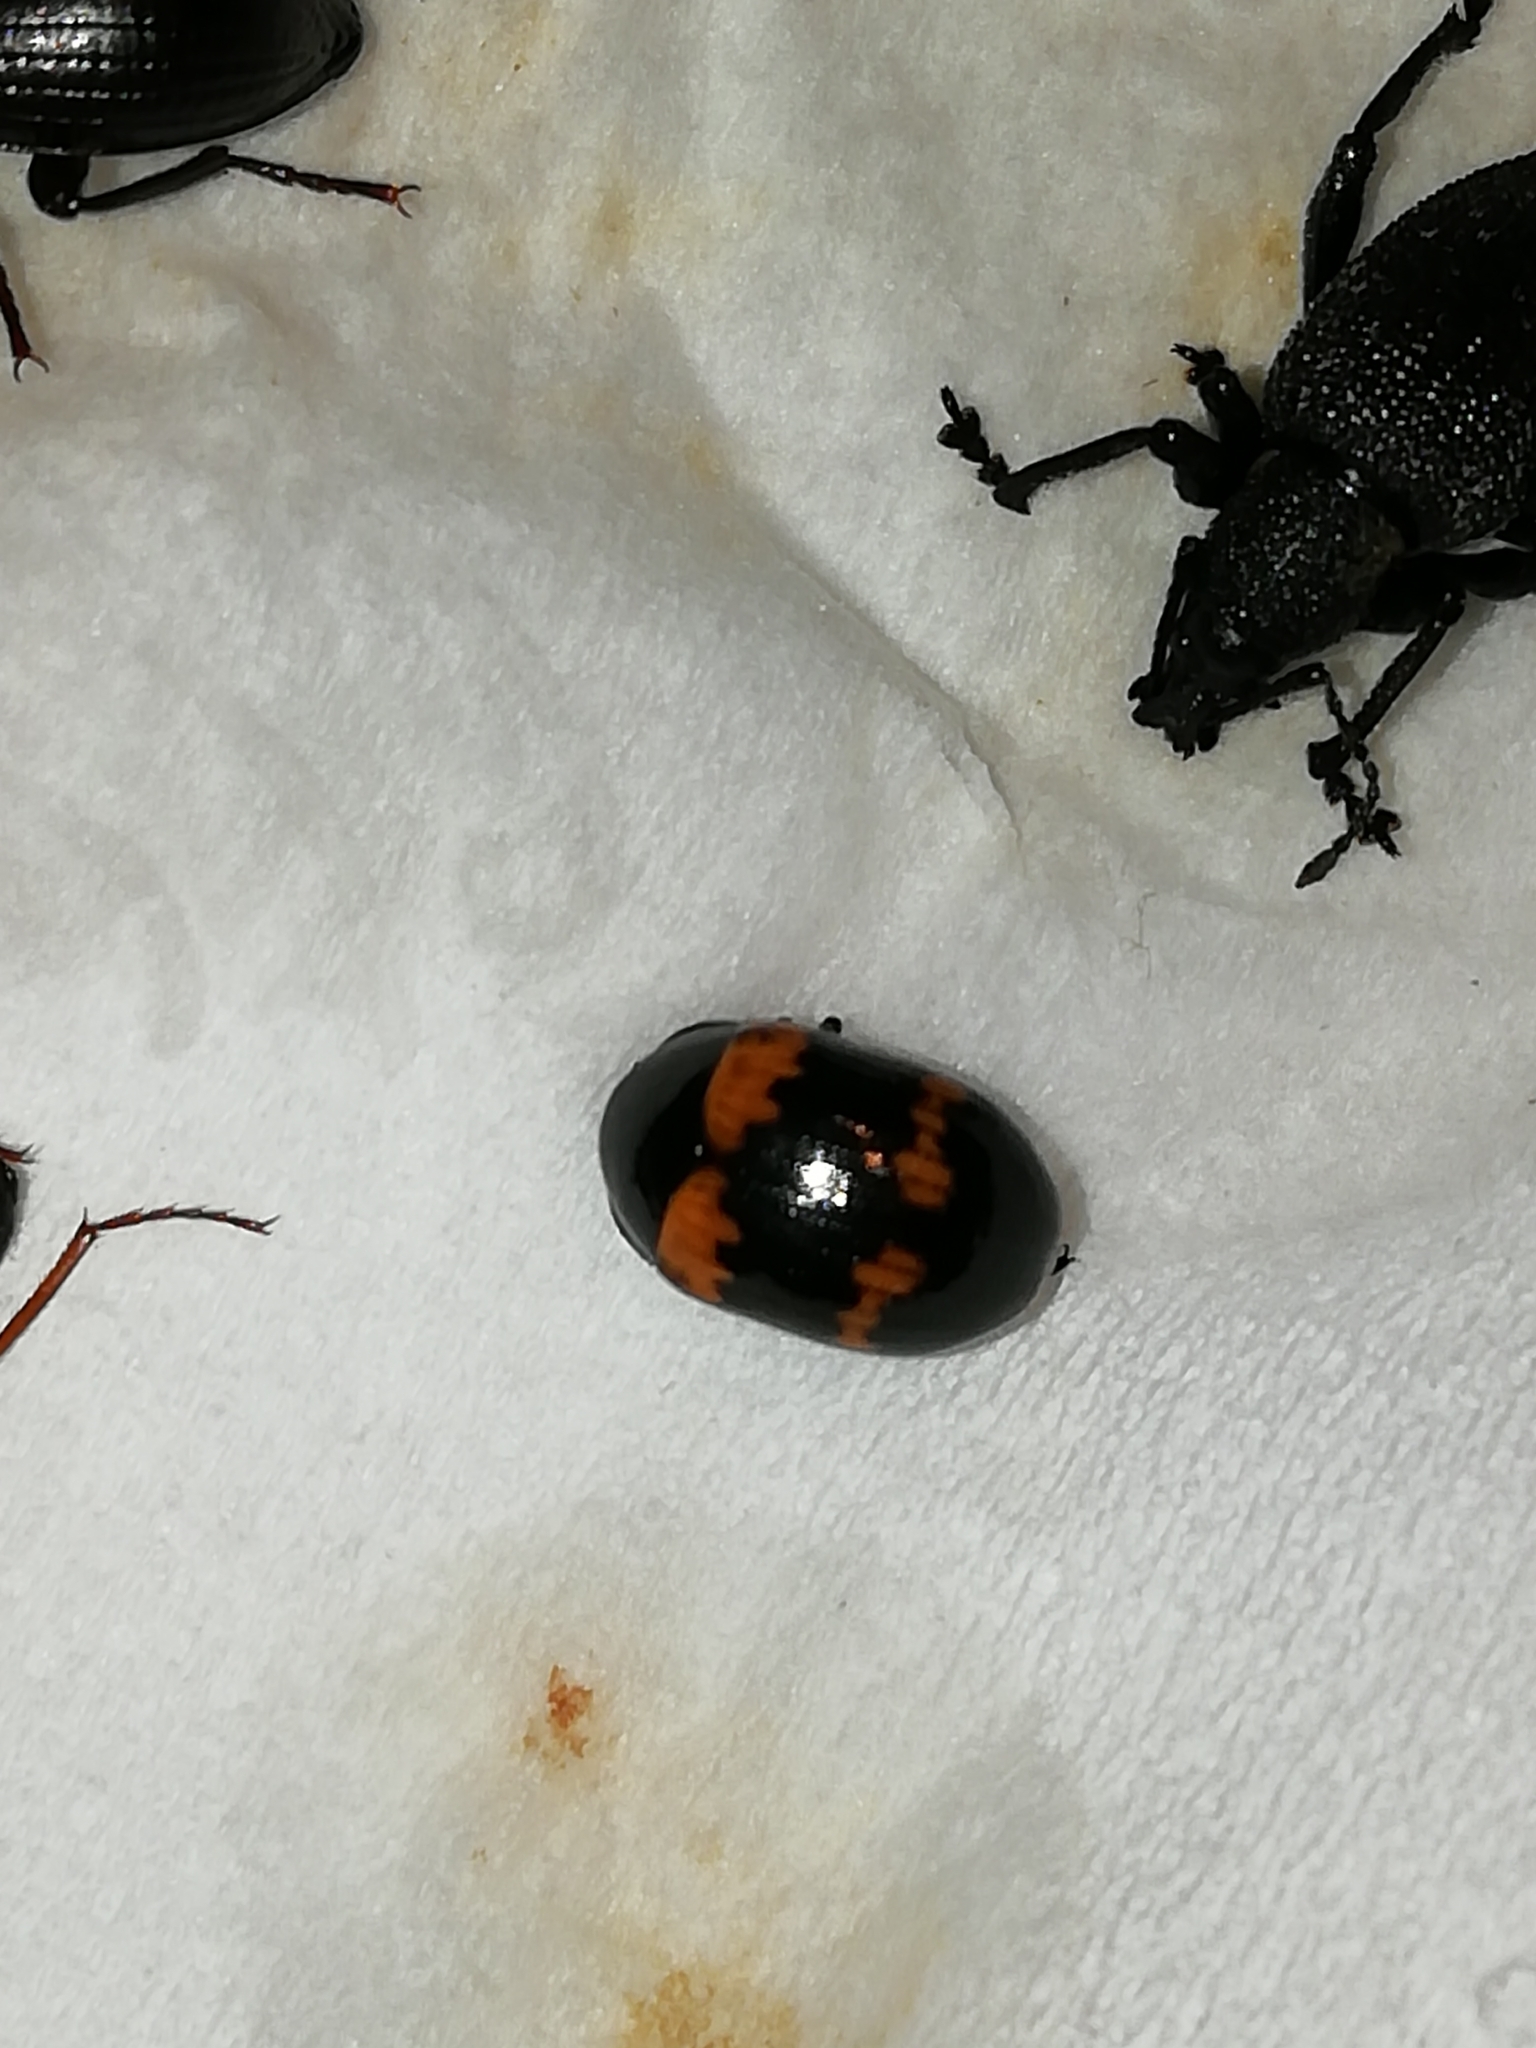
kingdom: Animalia
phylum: Arthropoda
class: Insecta
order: Coleoptera
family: Tenebrionidae
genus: Diaperis
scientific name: Diaperis boleti
